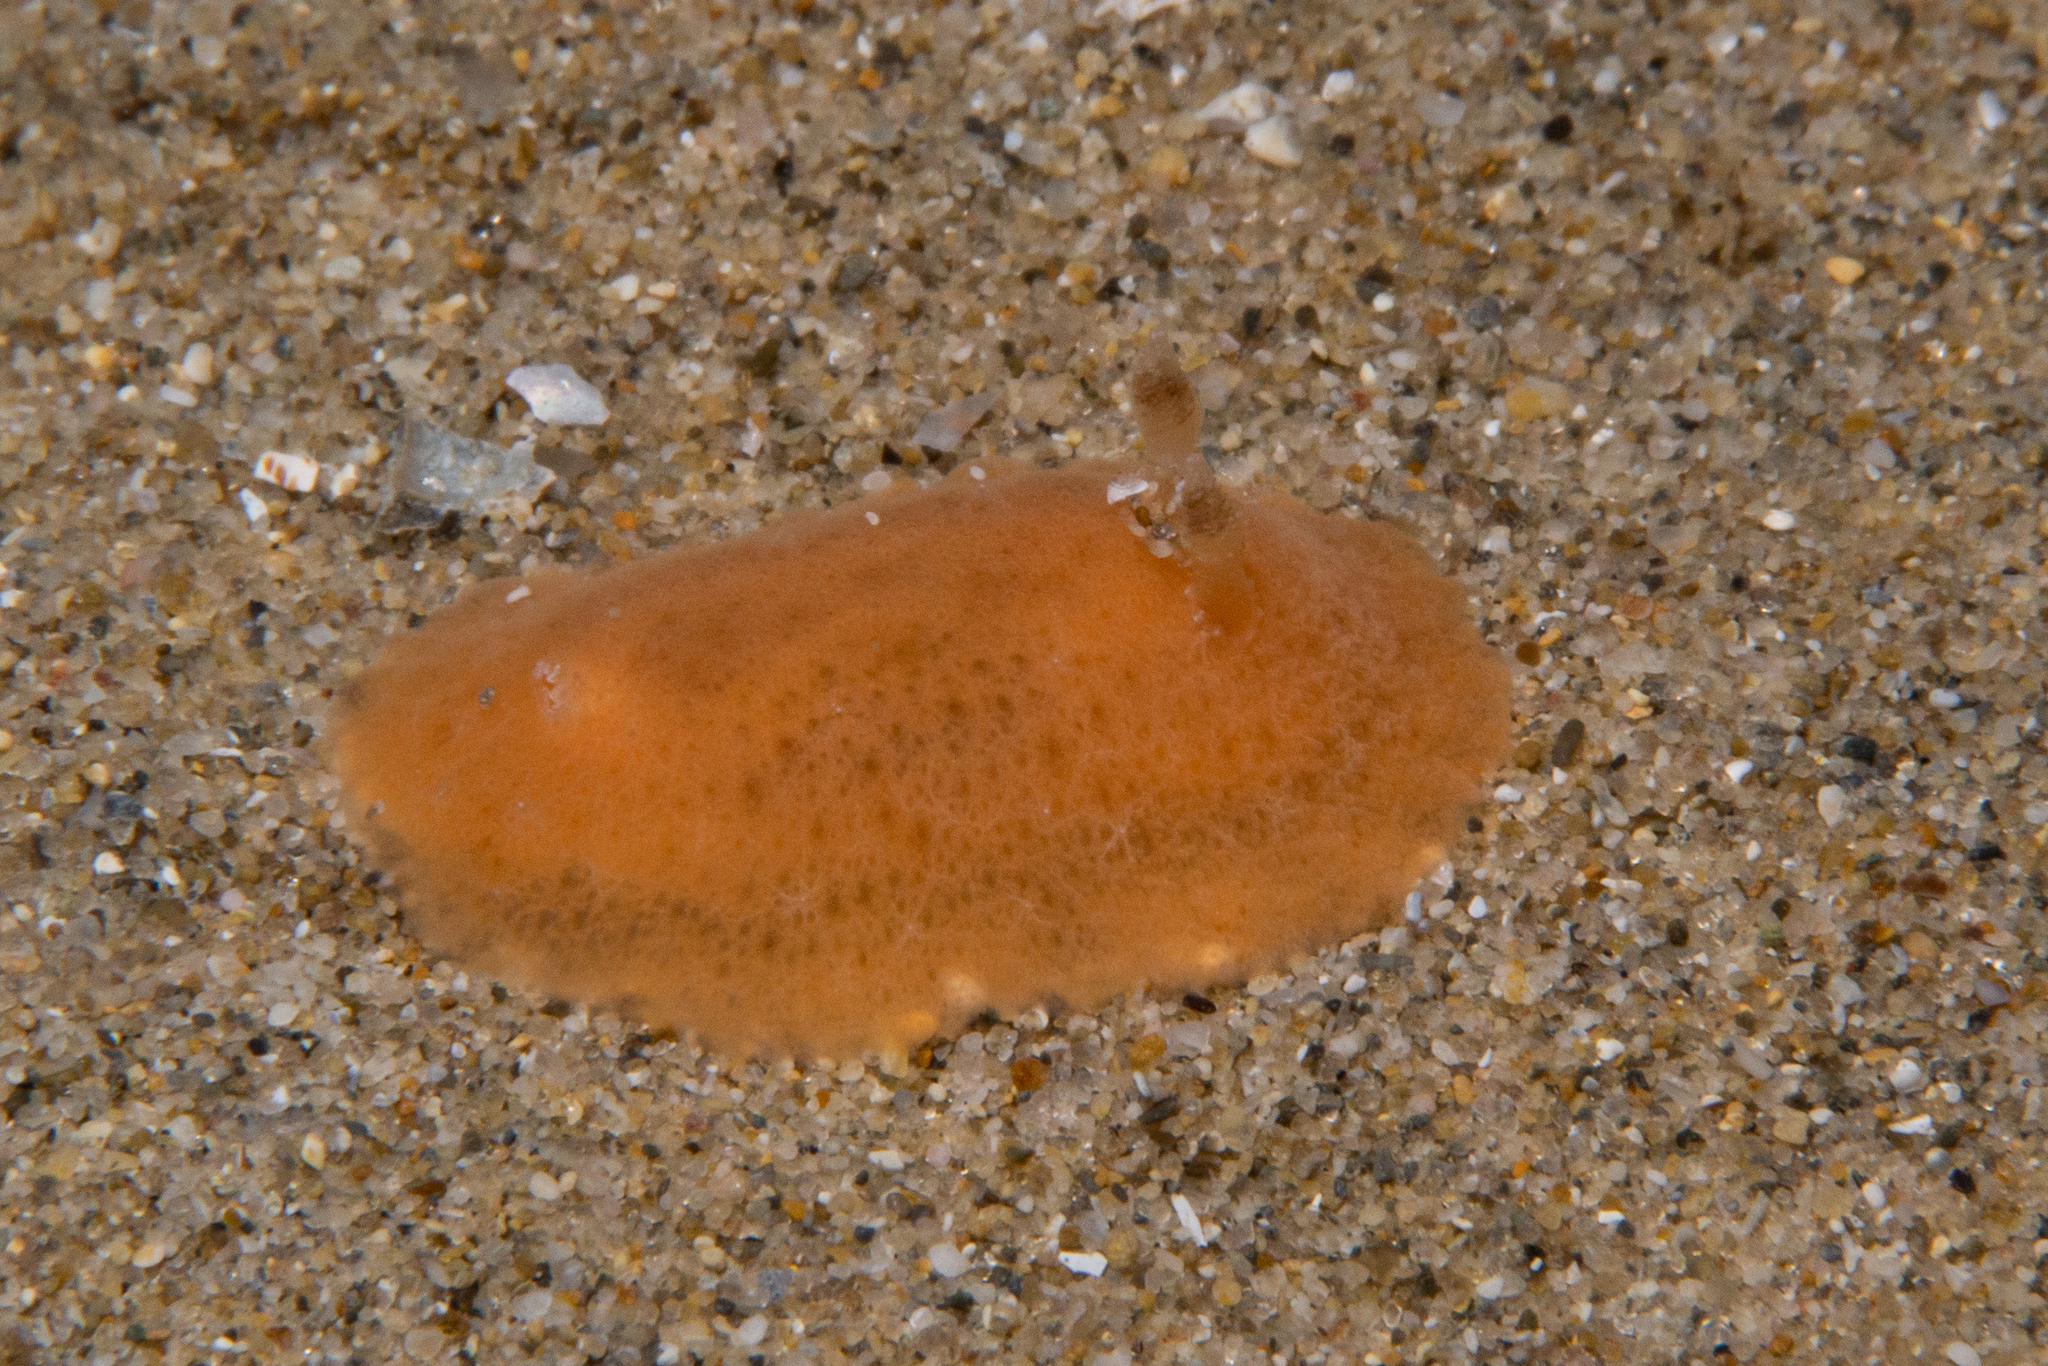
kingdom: Animalia
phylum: Mollusca
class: Gastropoda
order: Nudibranchia
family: Discodorididae
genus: Rostanga
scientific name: Rostanga crawfordi
